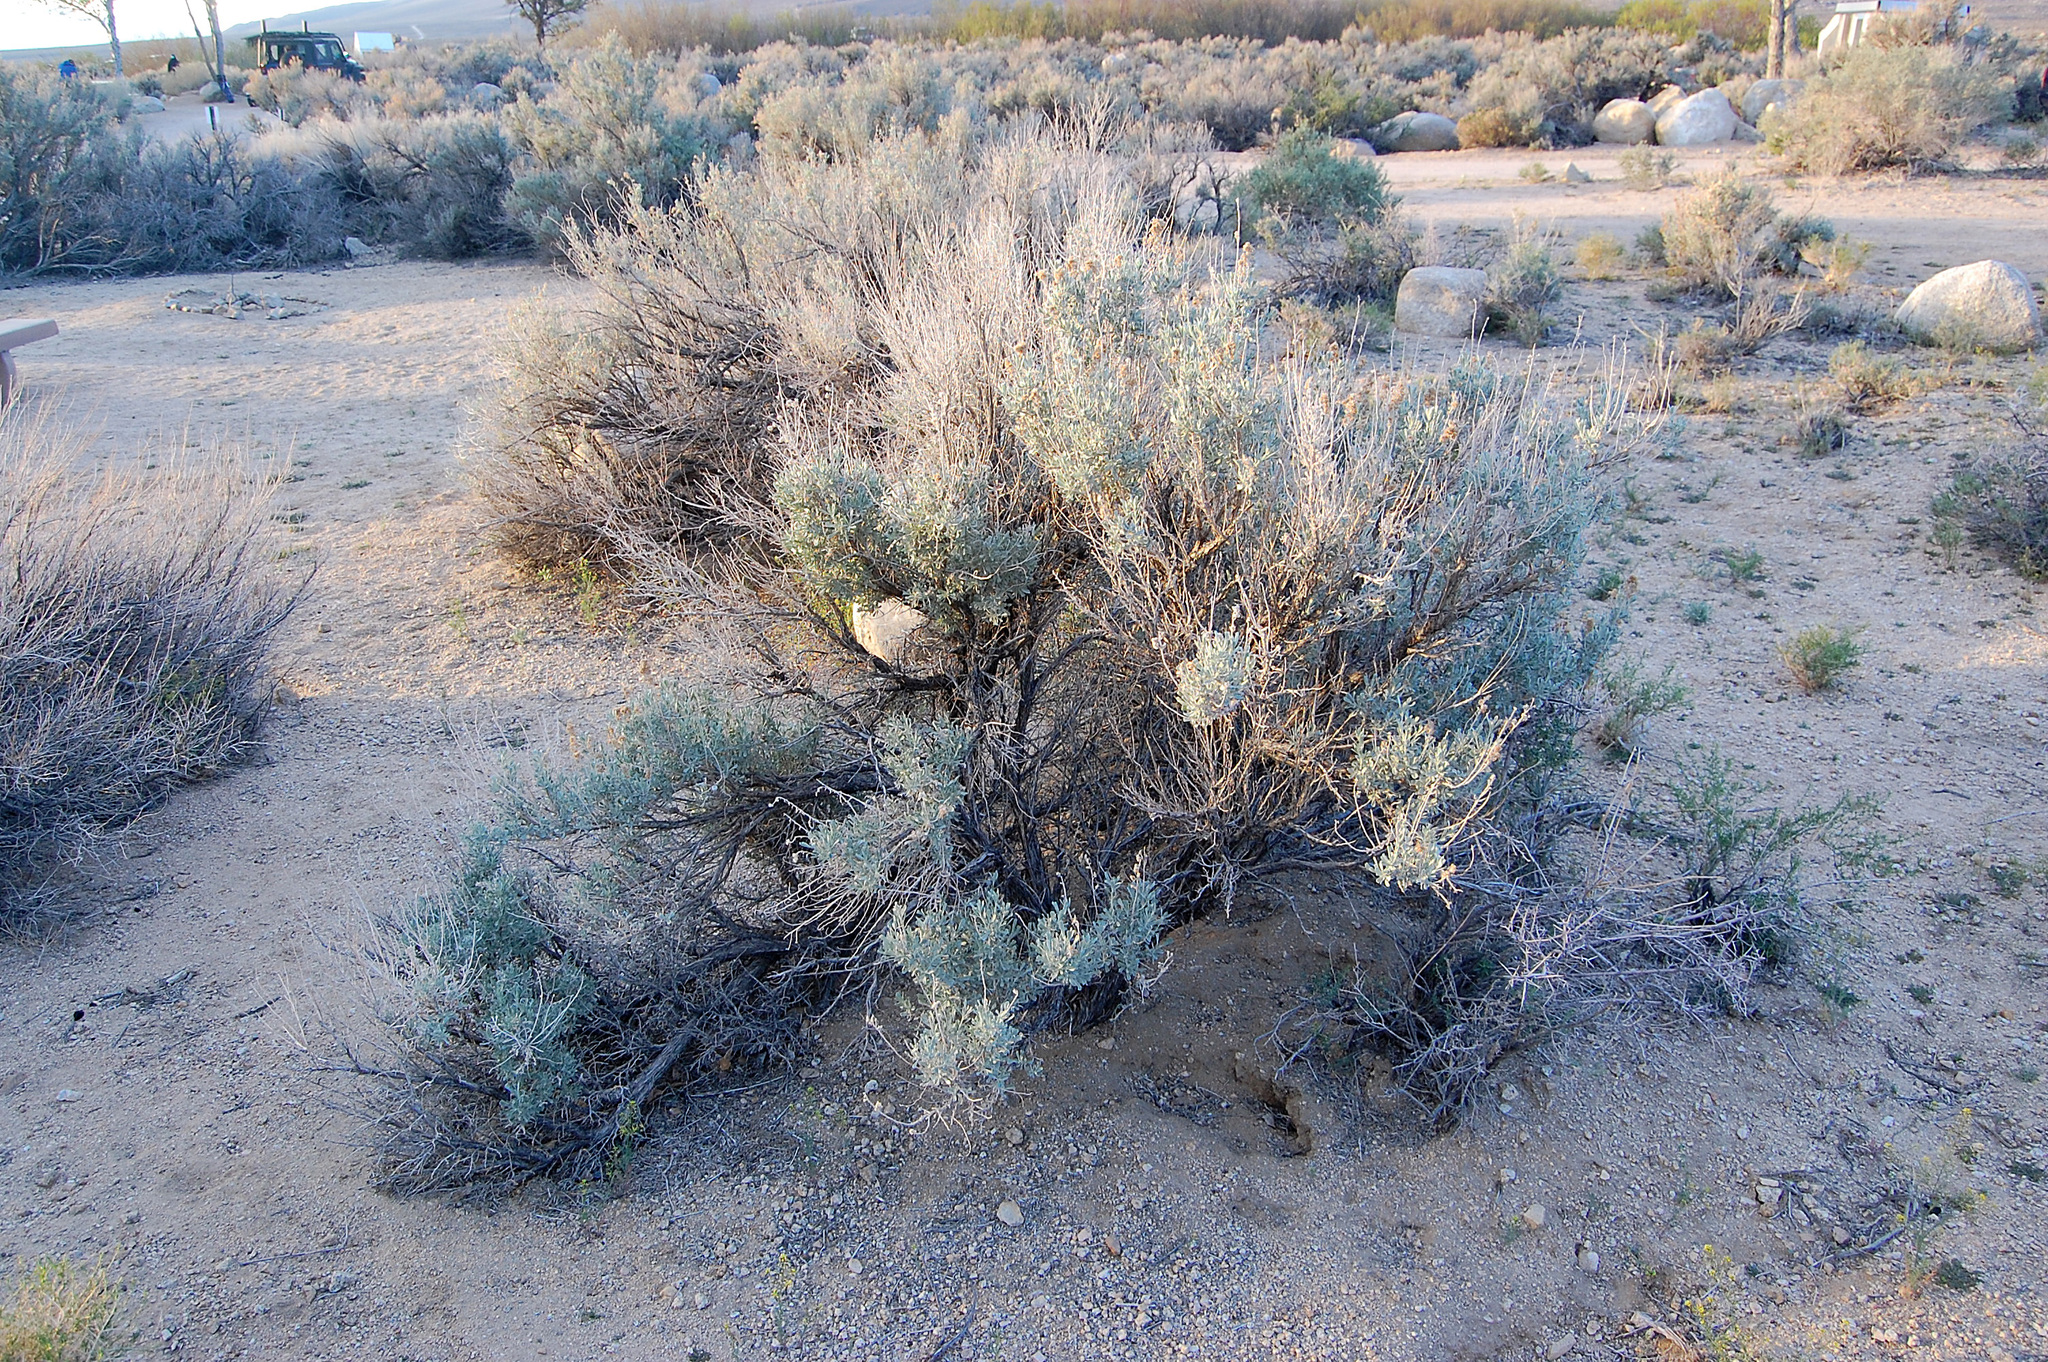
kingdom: Plantae
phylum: Tracheophyta
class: Magnoliopsida
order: Asterales
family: Asteraceae
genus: Artemisia
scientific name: Artemisia tridentata
